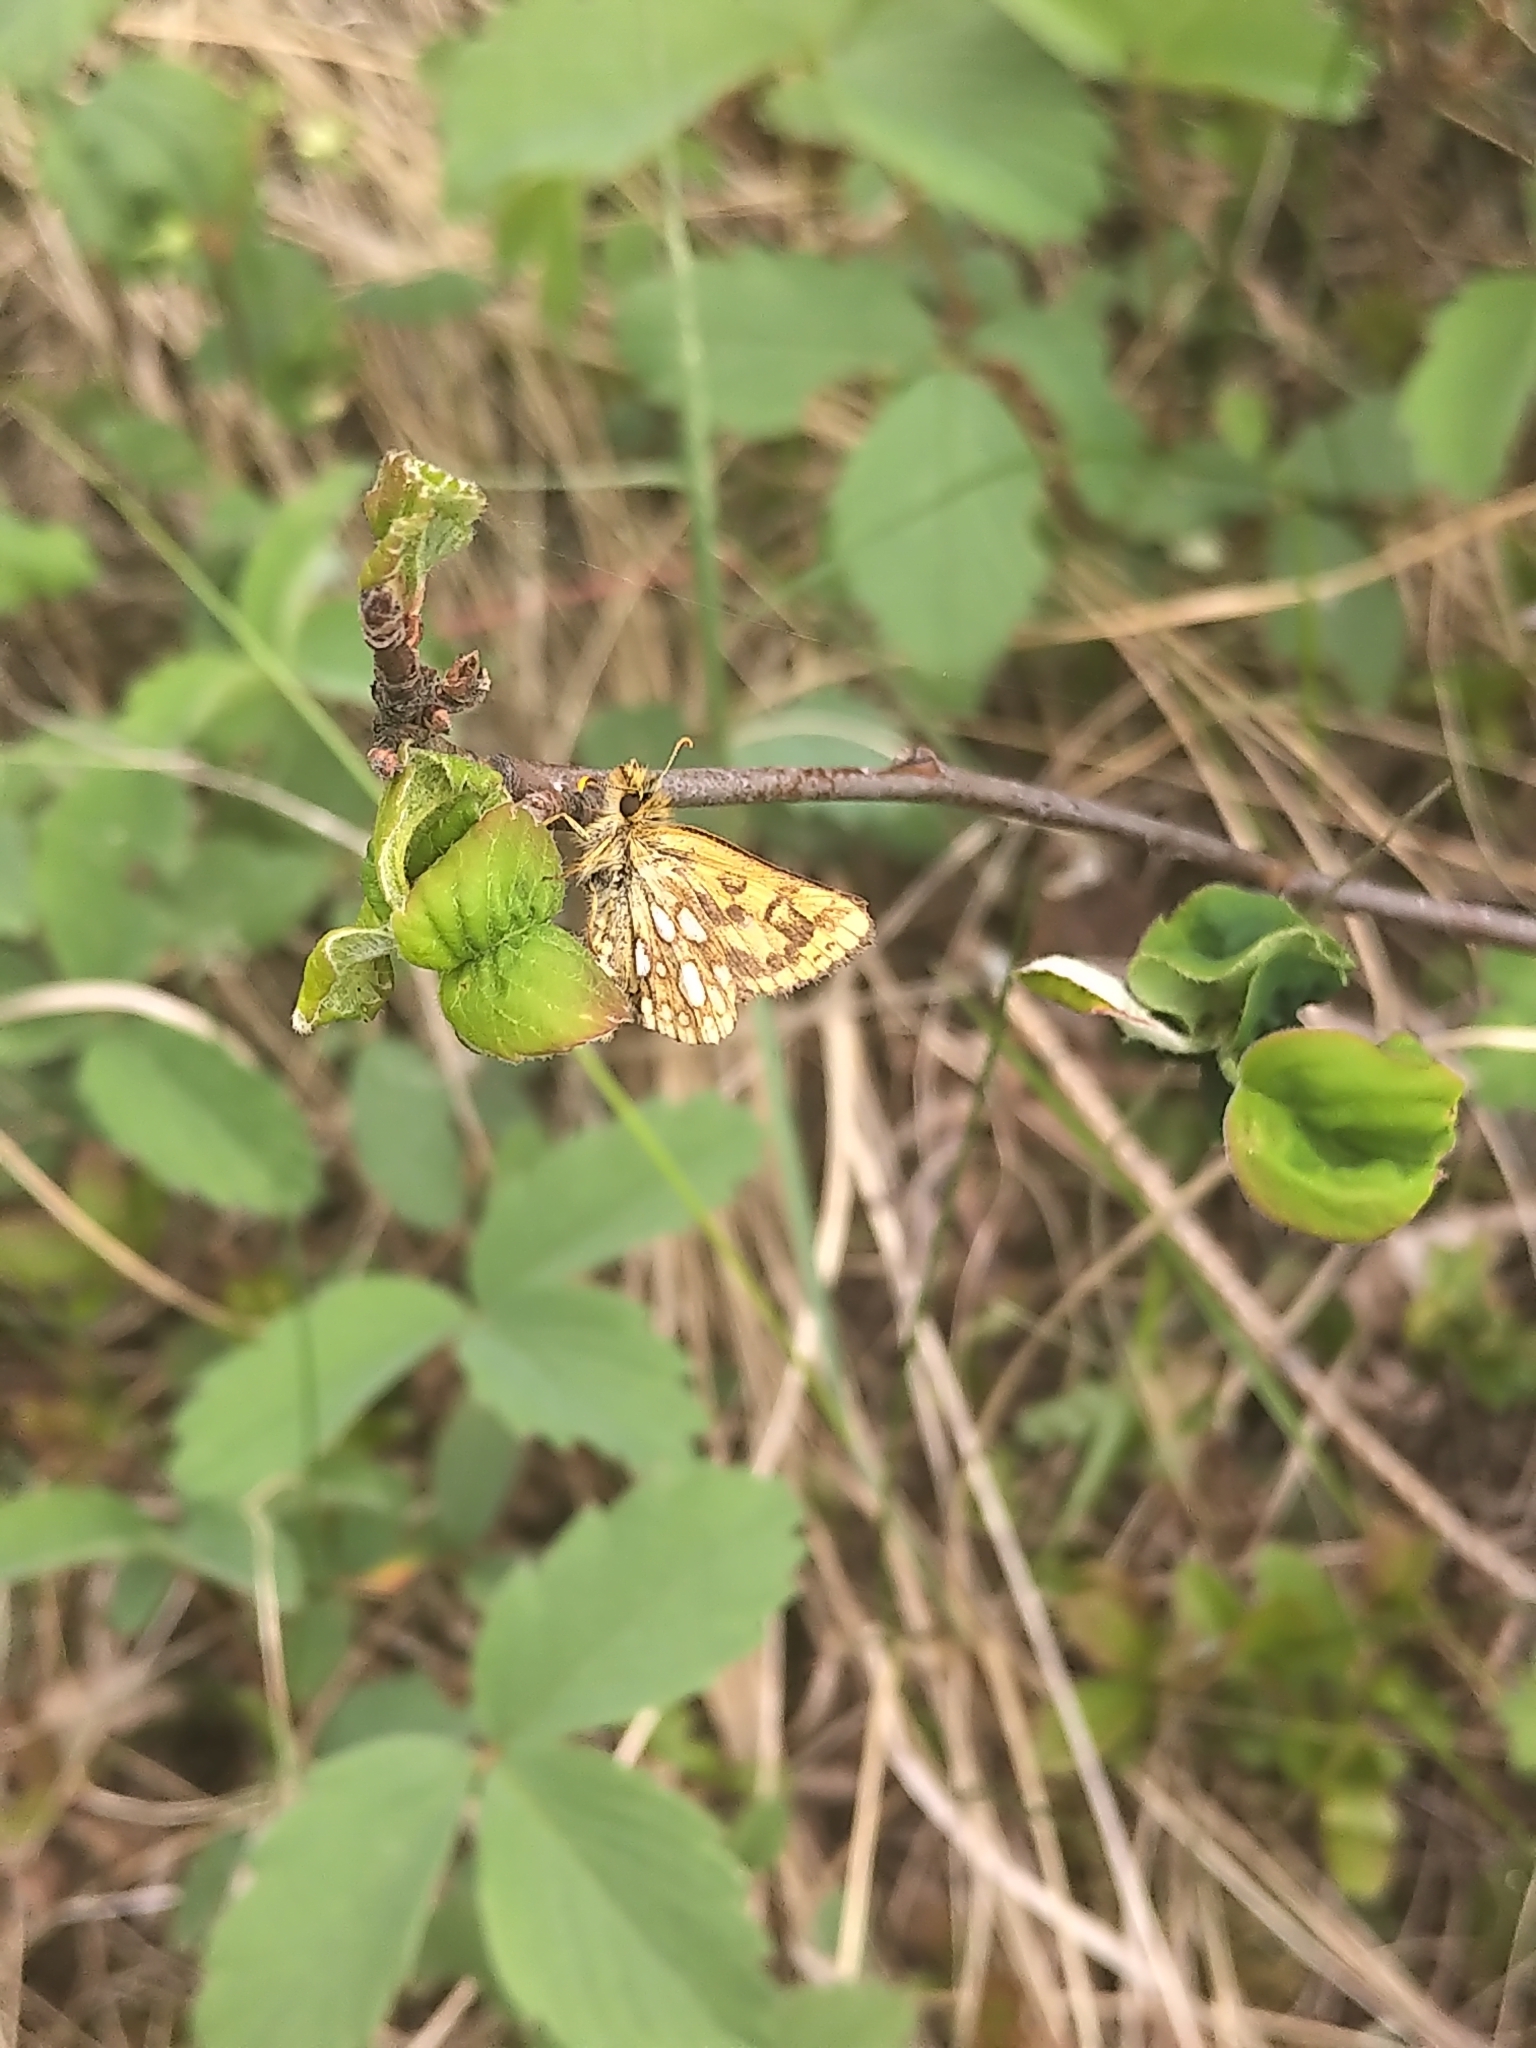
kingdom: Animalia
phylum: Arthropoda
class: Insecta
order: Lepidoptera
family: Hesperiidae
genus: Carterocephalus
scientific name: Carterocephalus mandan
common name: Arctic skipperling
